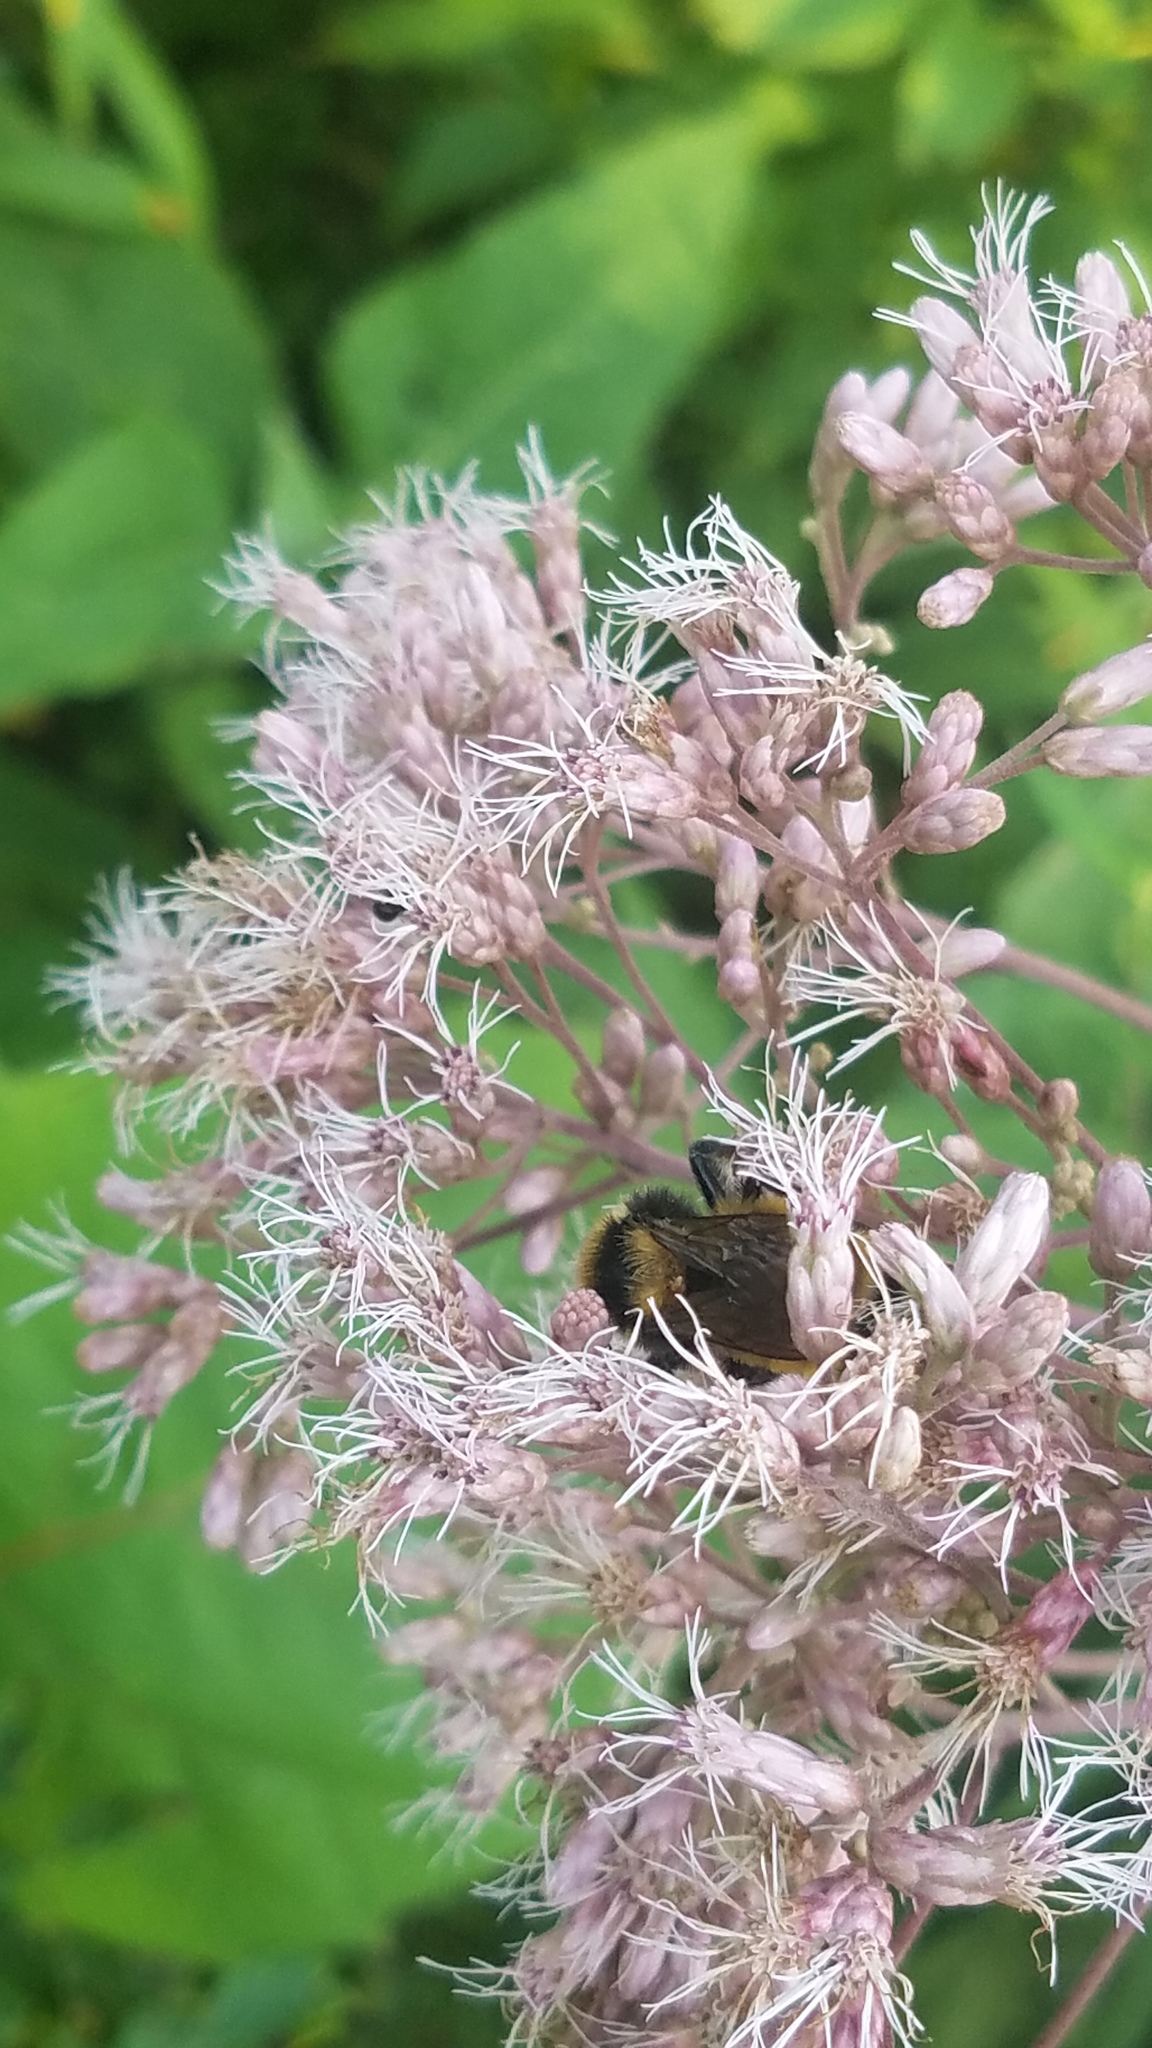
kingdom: Animalia
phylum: Arthropoda
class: Insecta
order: Hymenoptera
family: Apidae
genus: Bombus
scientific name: Bombus borealis
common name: Northern amber bumble bee
